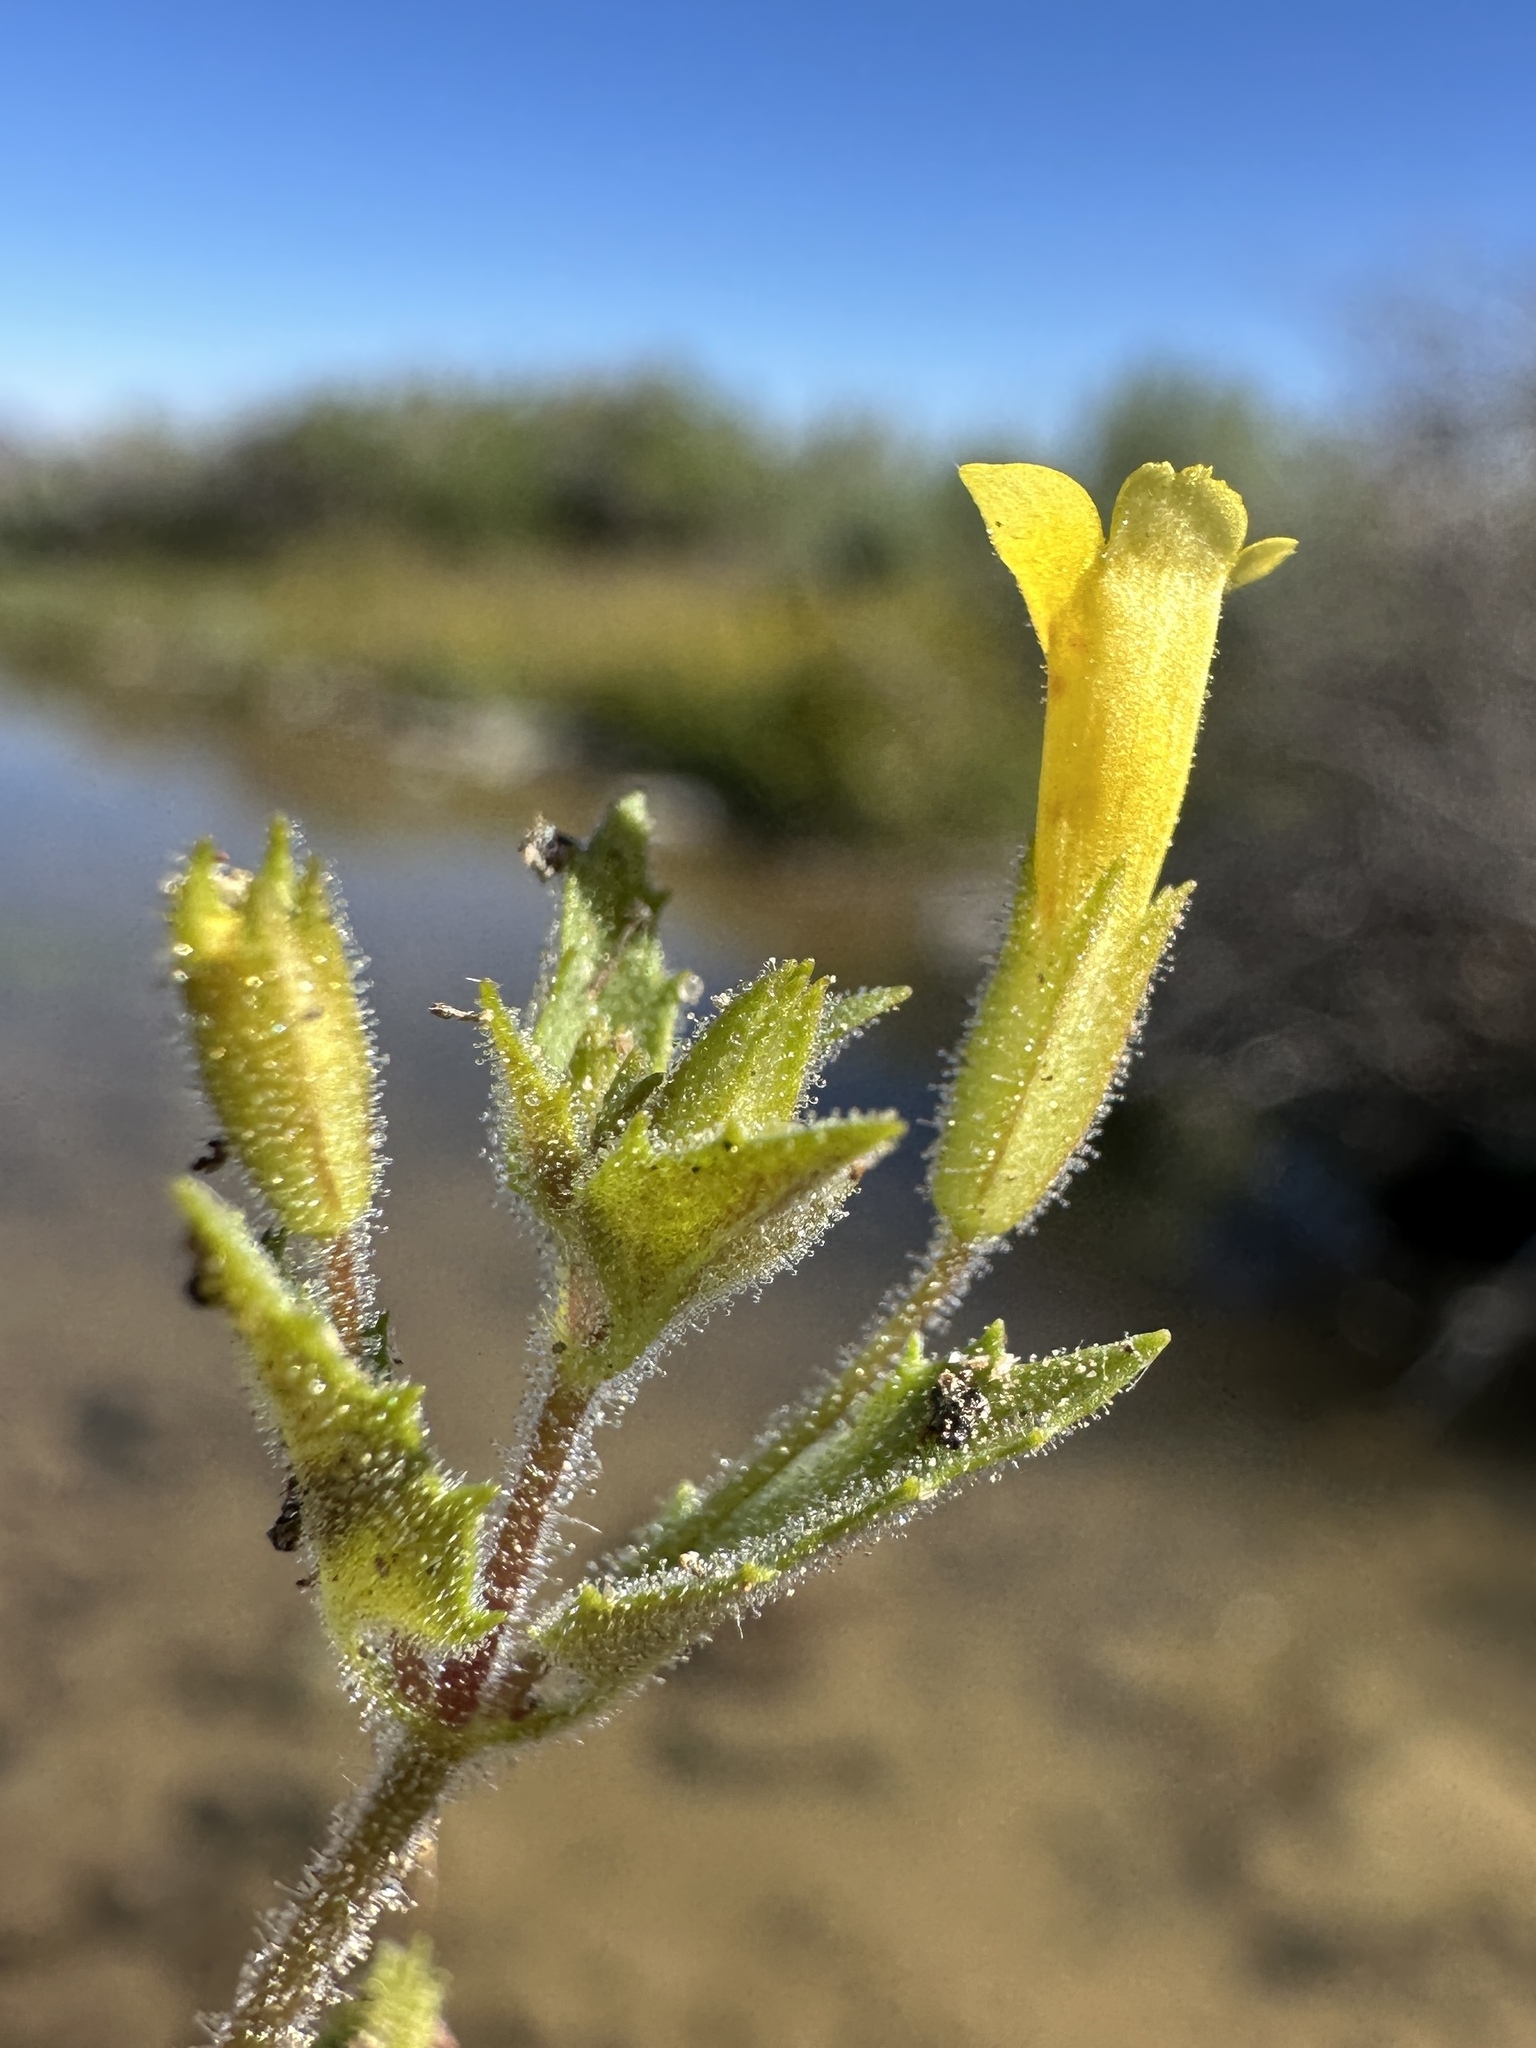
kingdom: Plantae
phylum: Tracheophyta
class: Magnoliopsida
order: Lamiales
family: Phrymaceae
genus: Erythranthe
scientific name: Erythranthe floribunda
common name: Floriferous monkeyflower
